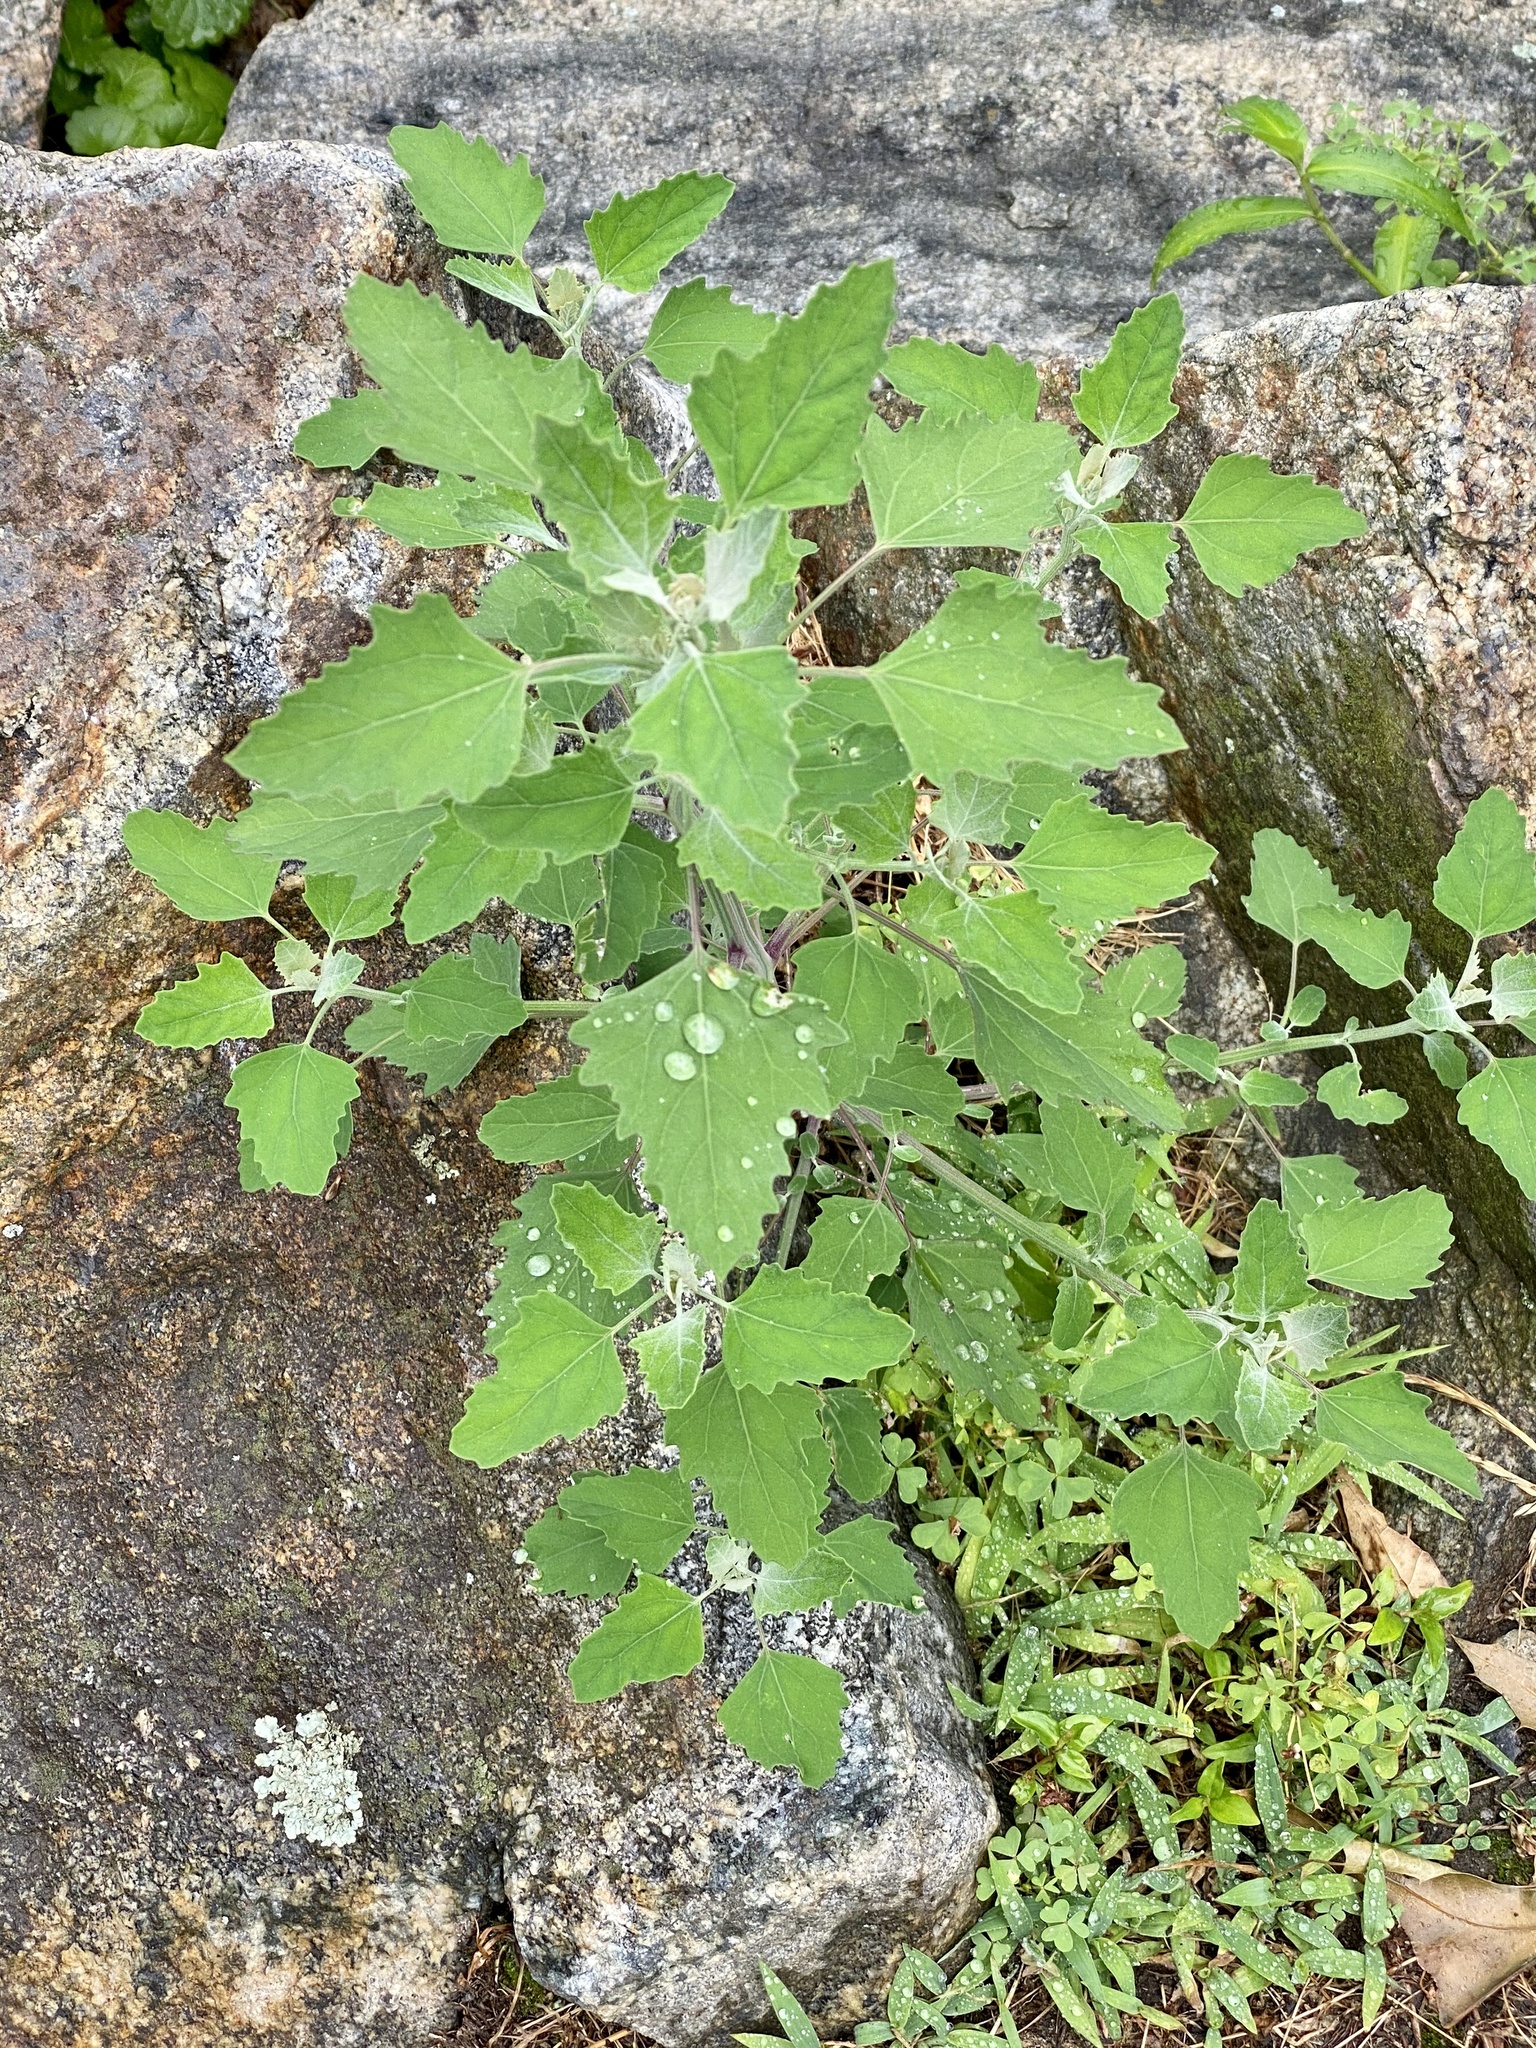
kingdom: Plantae
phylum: Tracheophyta
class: Magnoliopsida
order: Caryophyllales
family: Amaranthaceae
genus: Chenopodium
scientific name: Chenopodium album
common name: Fat-hen
